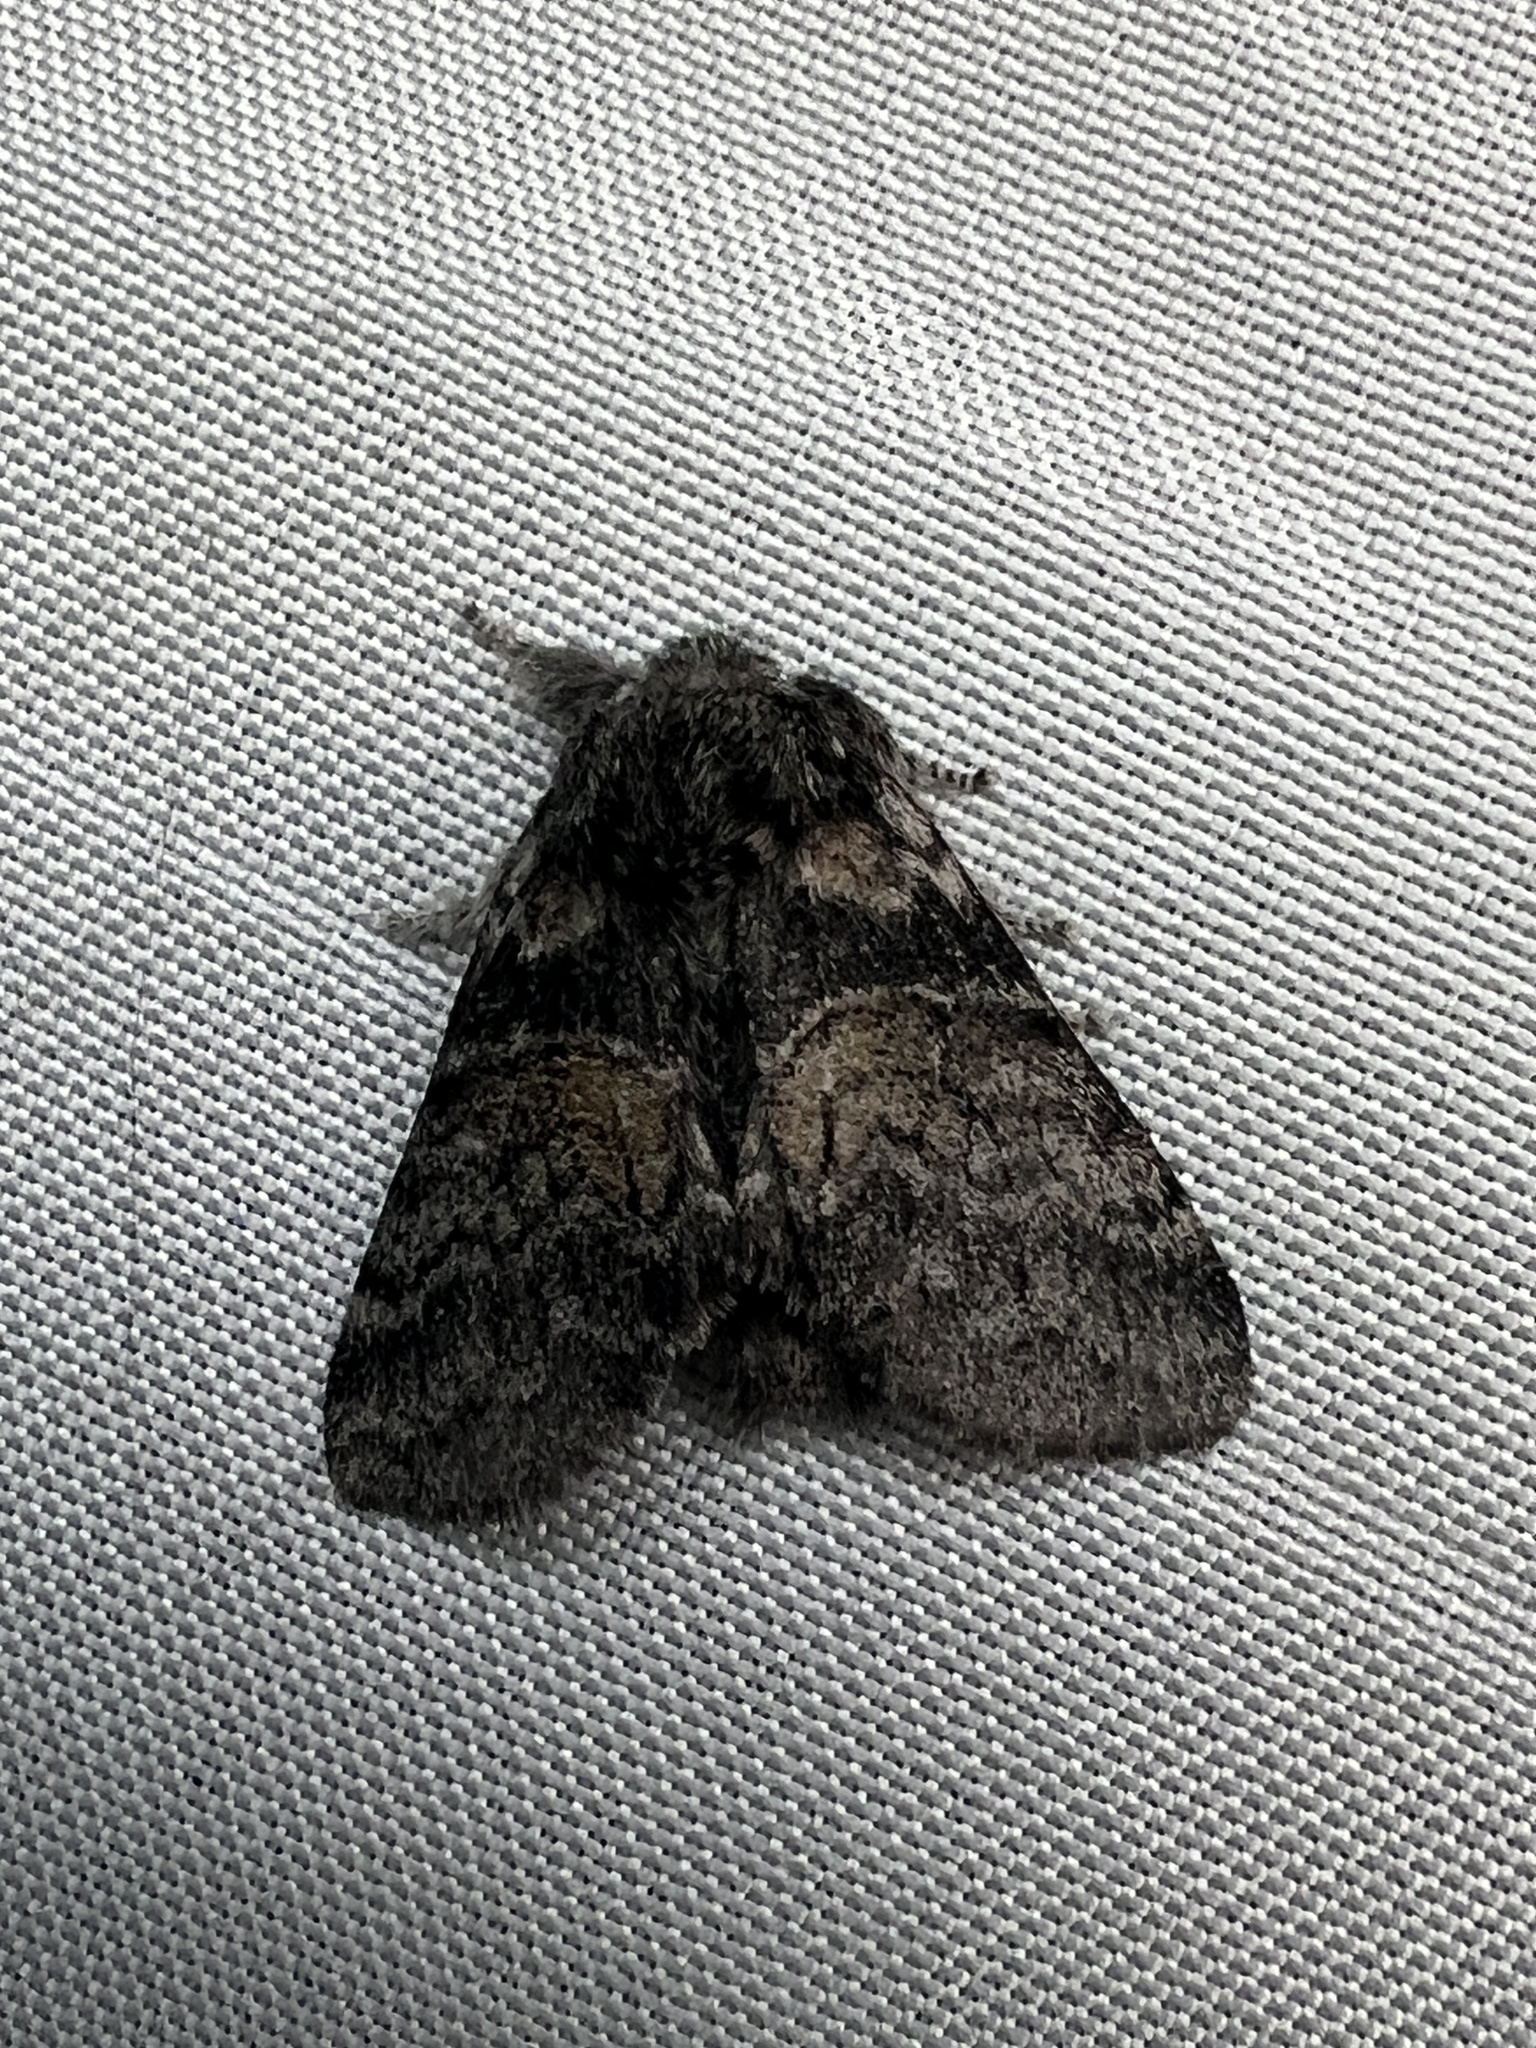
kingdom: Animalia
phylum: Arthropoda
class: Insecta
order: Lepidoptera
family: Notodontidae
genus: Gluphisia
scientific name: Gluphisia septentrionis
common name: Common gluphisia
